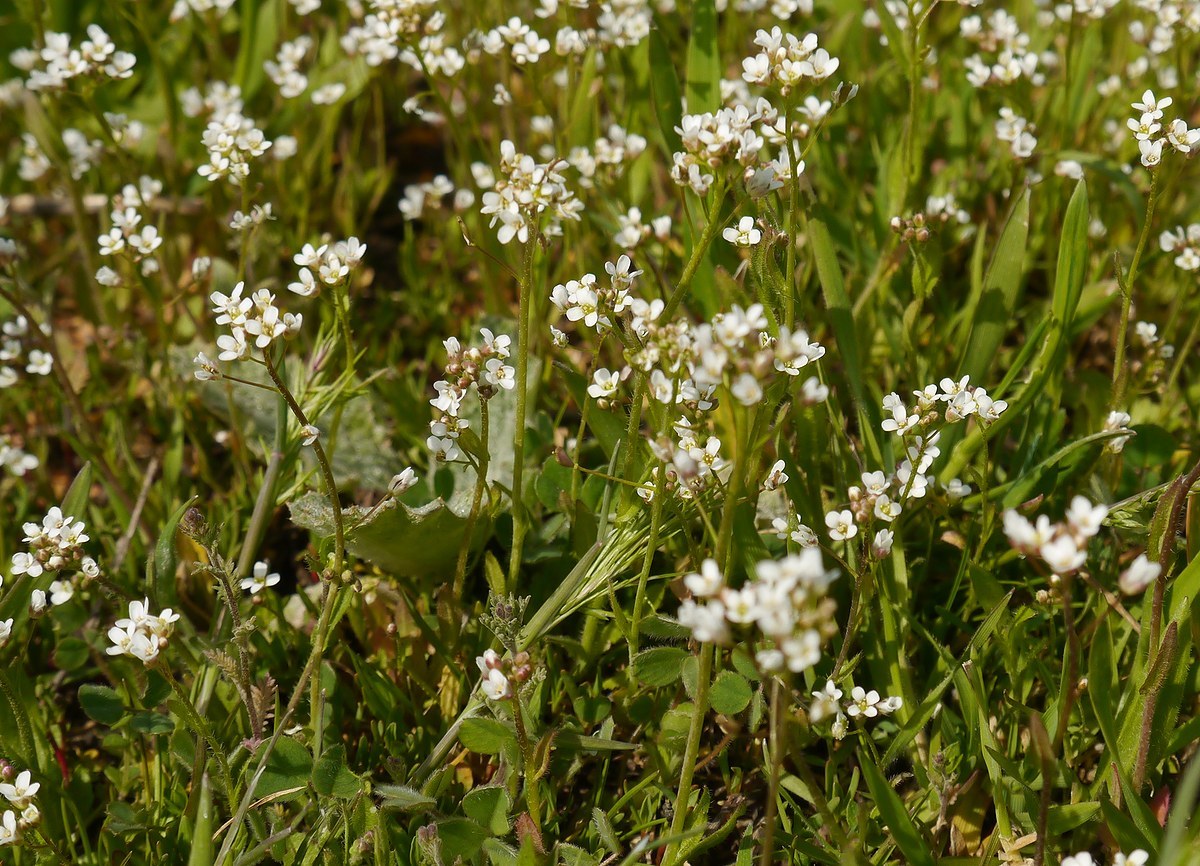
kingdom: Plantae
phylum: Tracheophyta
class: Magnoliopsida
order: Brassicales
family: Brassicaceae
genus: Capsella
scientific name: Capsella bursa-pastoris
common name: Shepherd's purse
